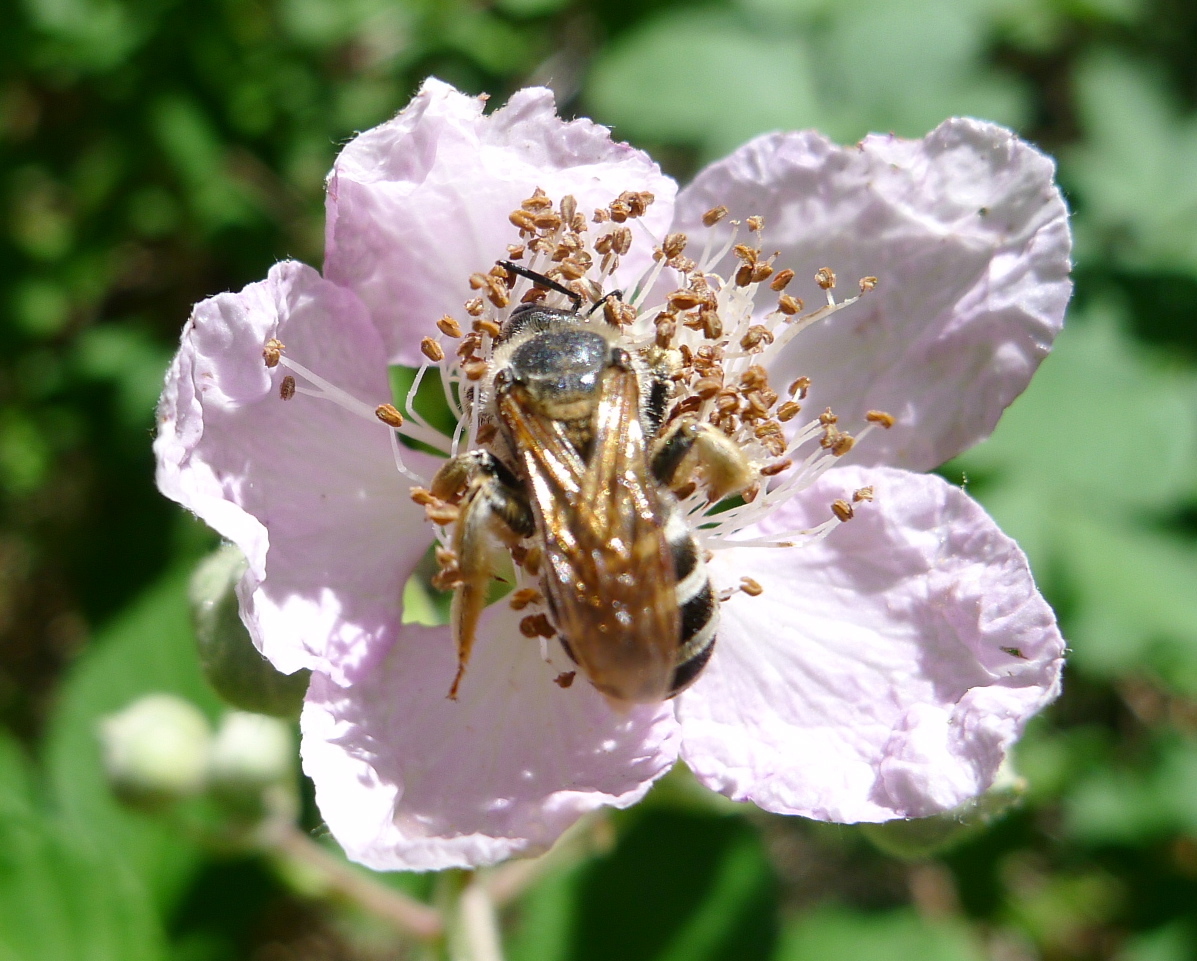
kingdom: Animalia
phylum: Arthropoda
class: Insecta
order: Hymenoptera
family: Halictidae
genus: Halictus
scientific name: Halictus farinosus
